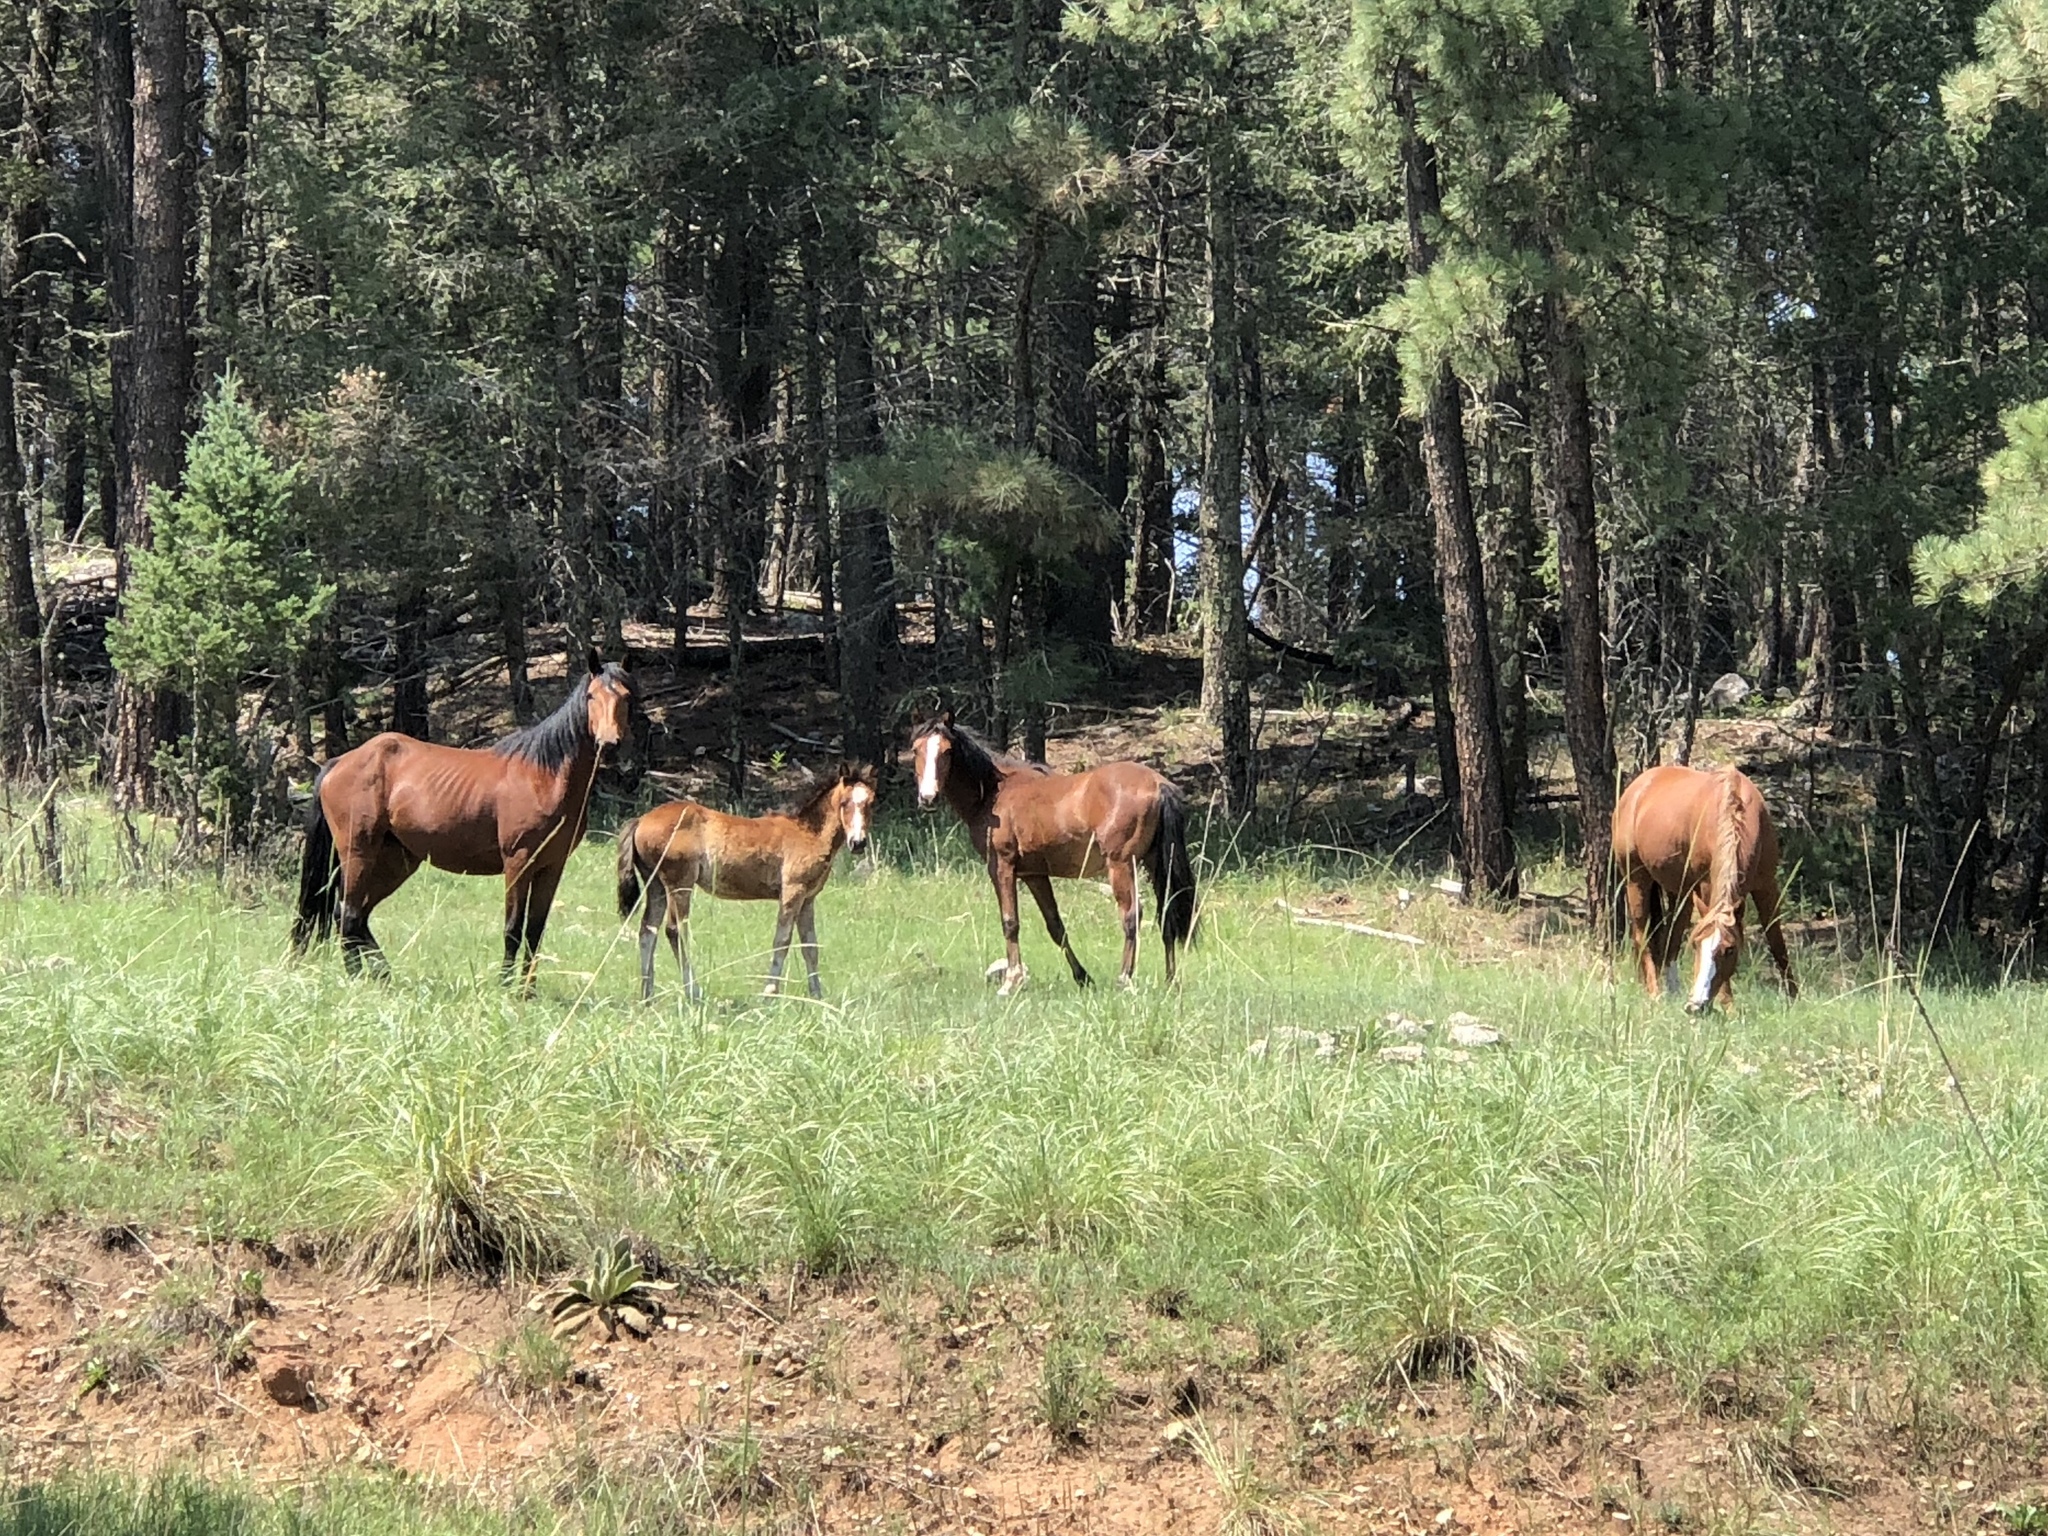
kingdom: Animalia
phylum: Chordata
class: Mammalia
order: Perissodactyla
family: Equidae
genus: Equus
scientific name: Equus caballus
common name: Horse
